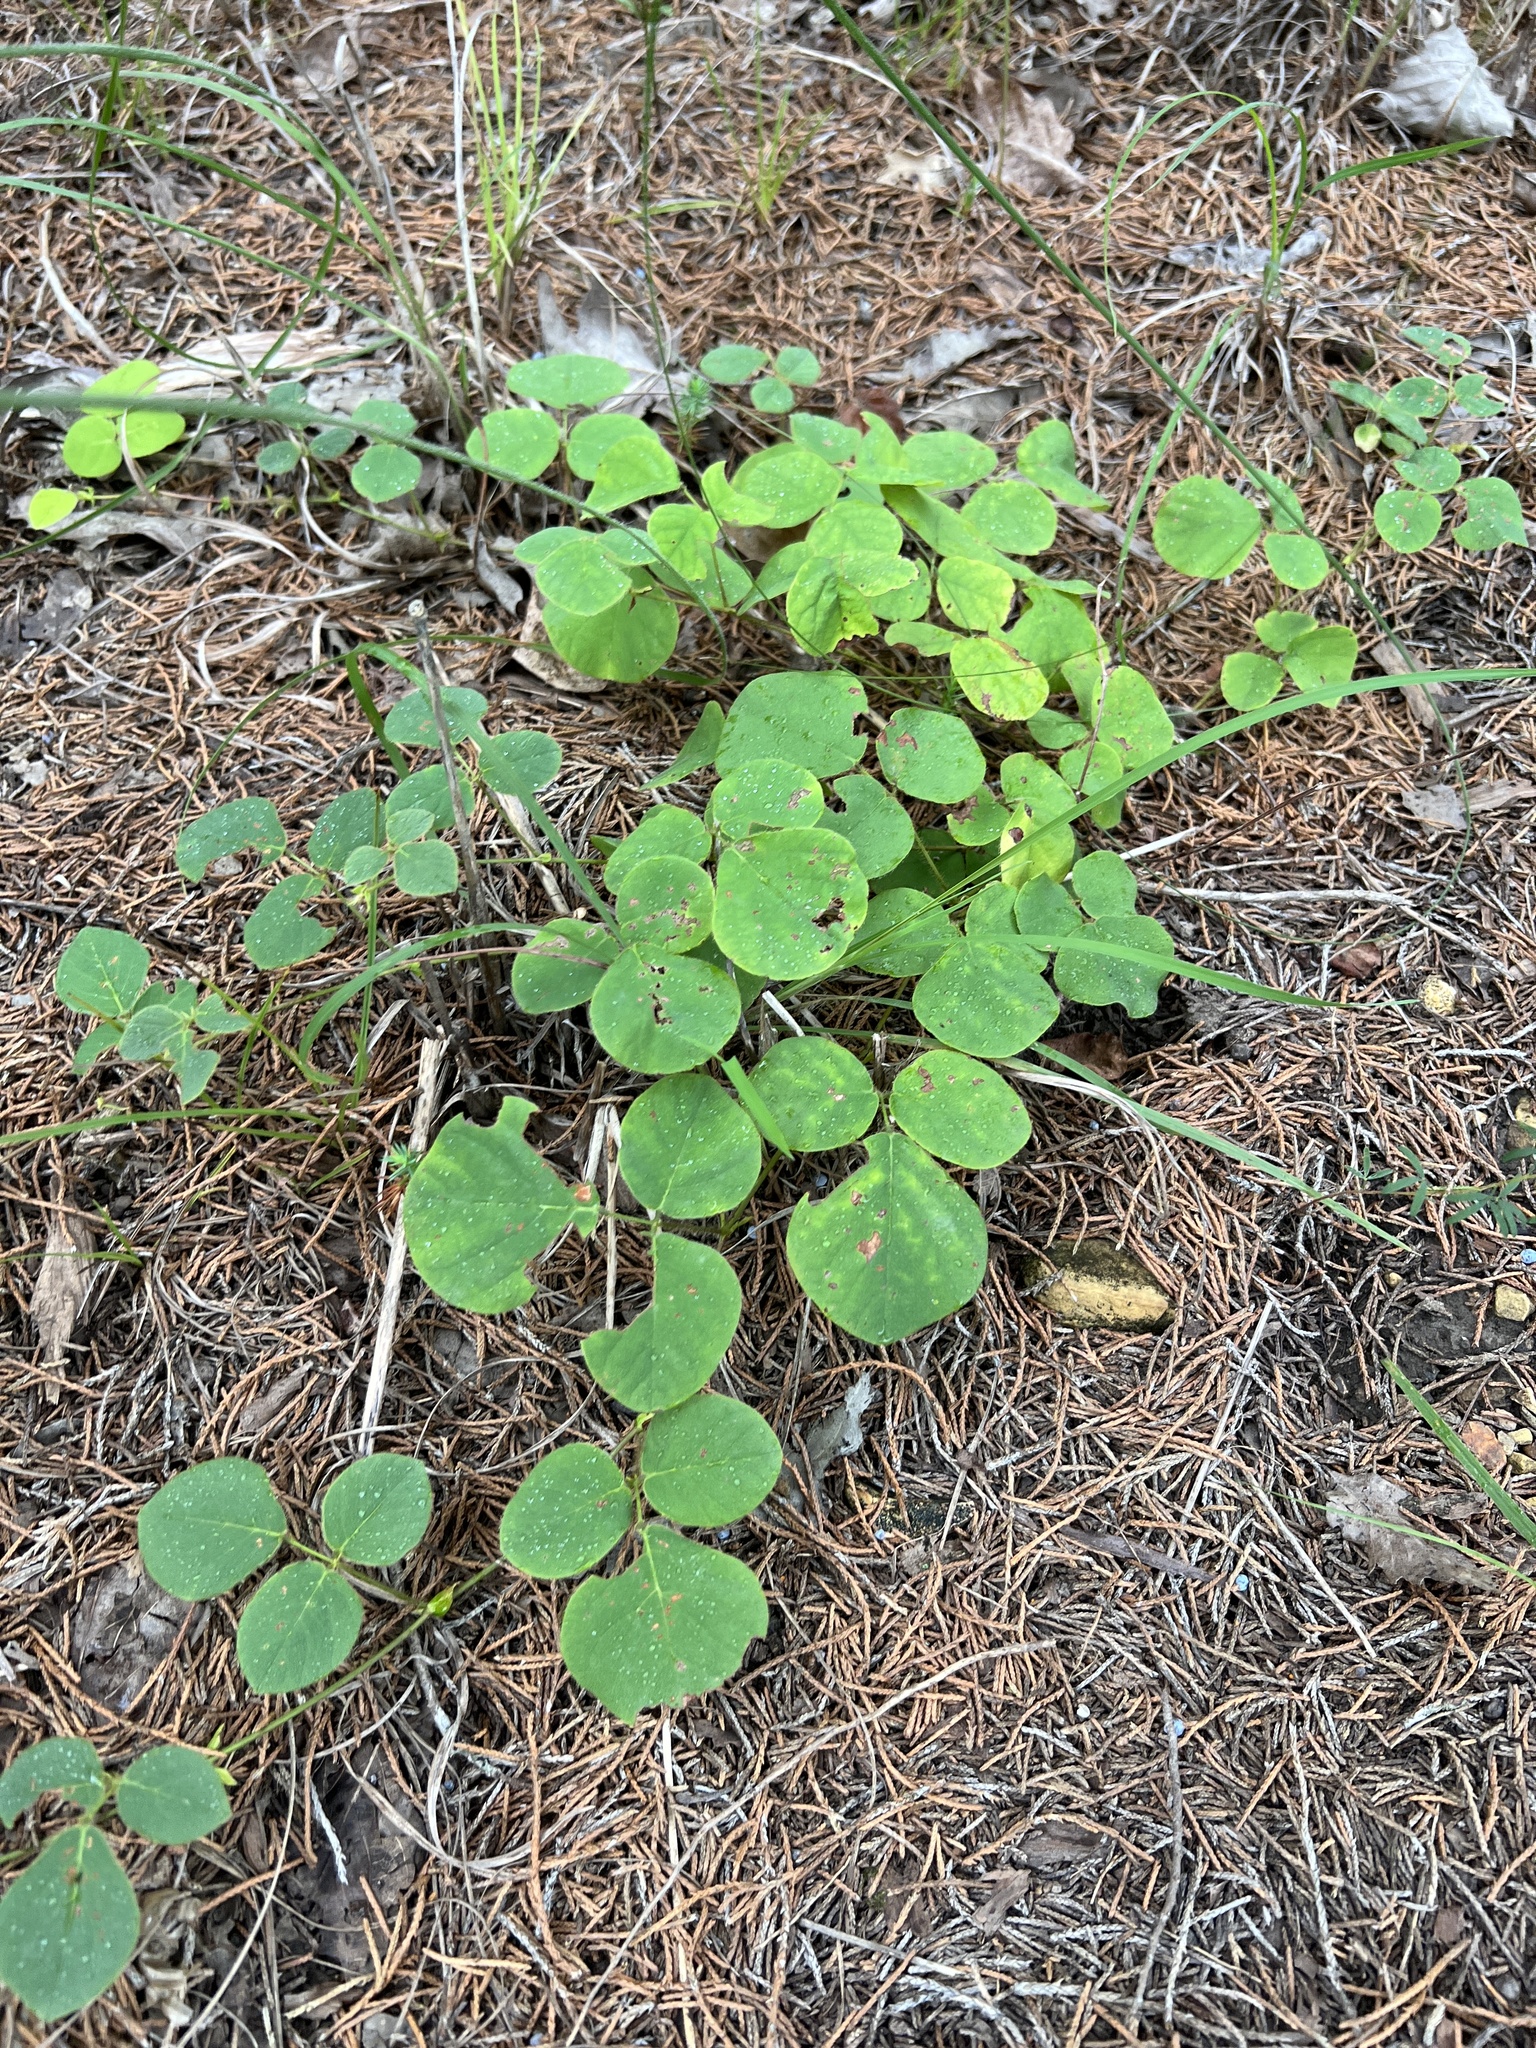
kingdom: Plantae
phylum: Tracheophyta
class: Magnoliopsida
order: Fabales
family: Fabaceae
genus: Desmodium
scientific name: Desmodium rotundifolium
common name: Dollarleaf
